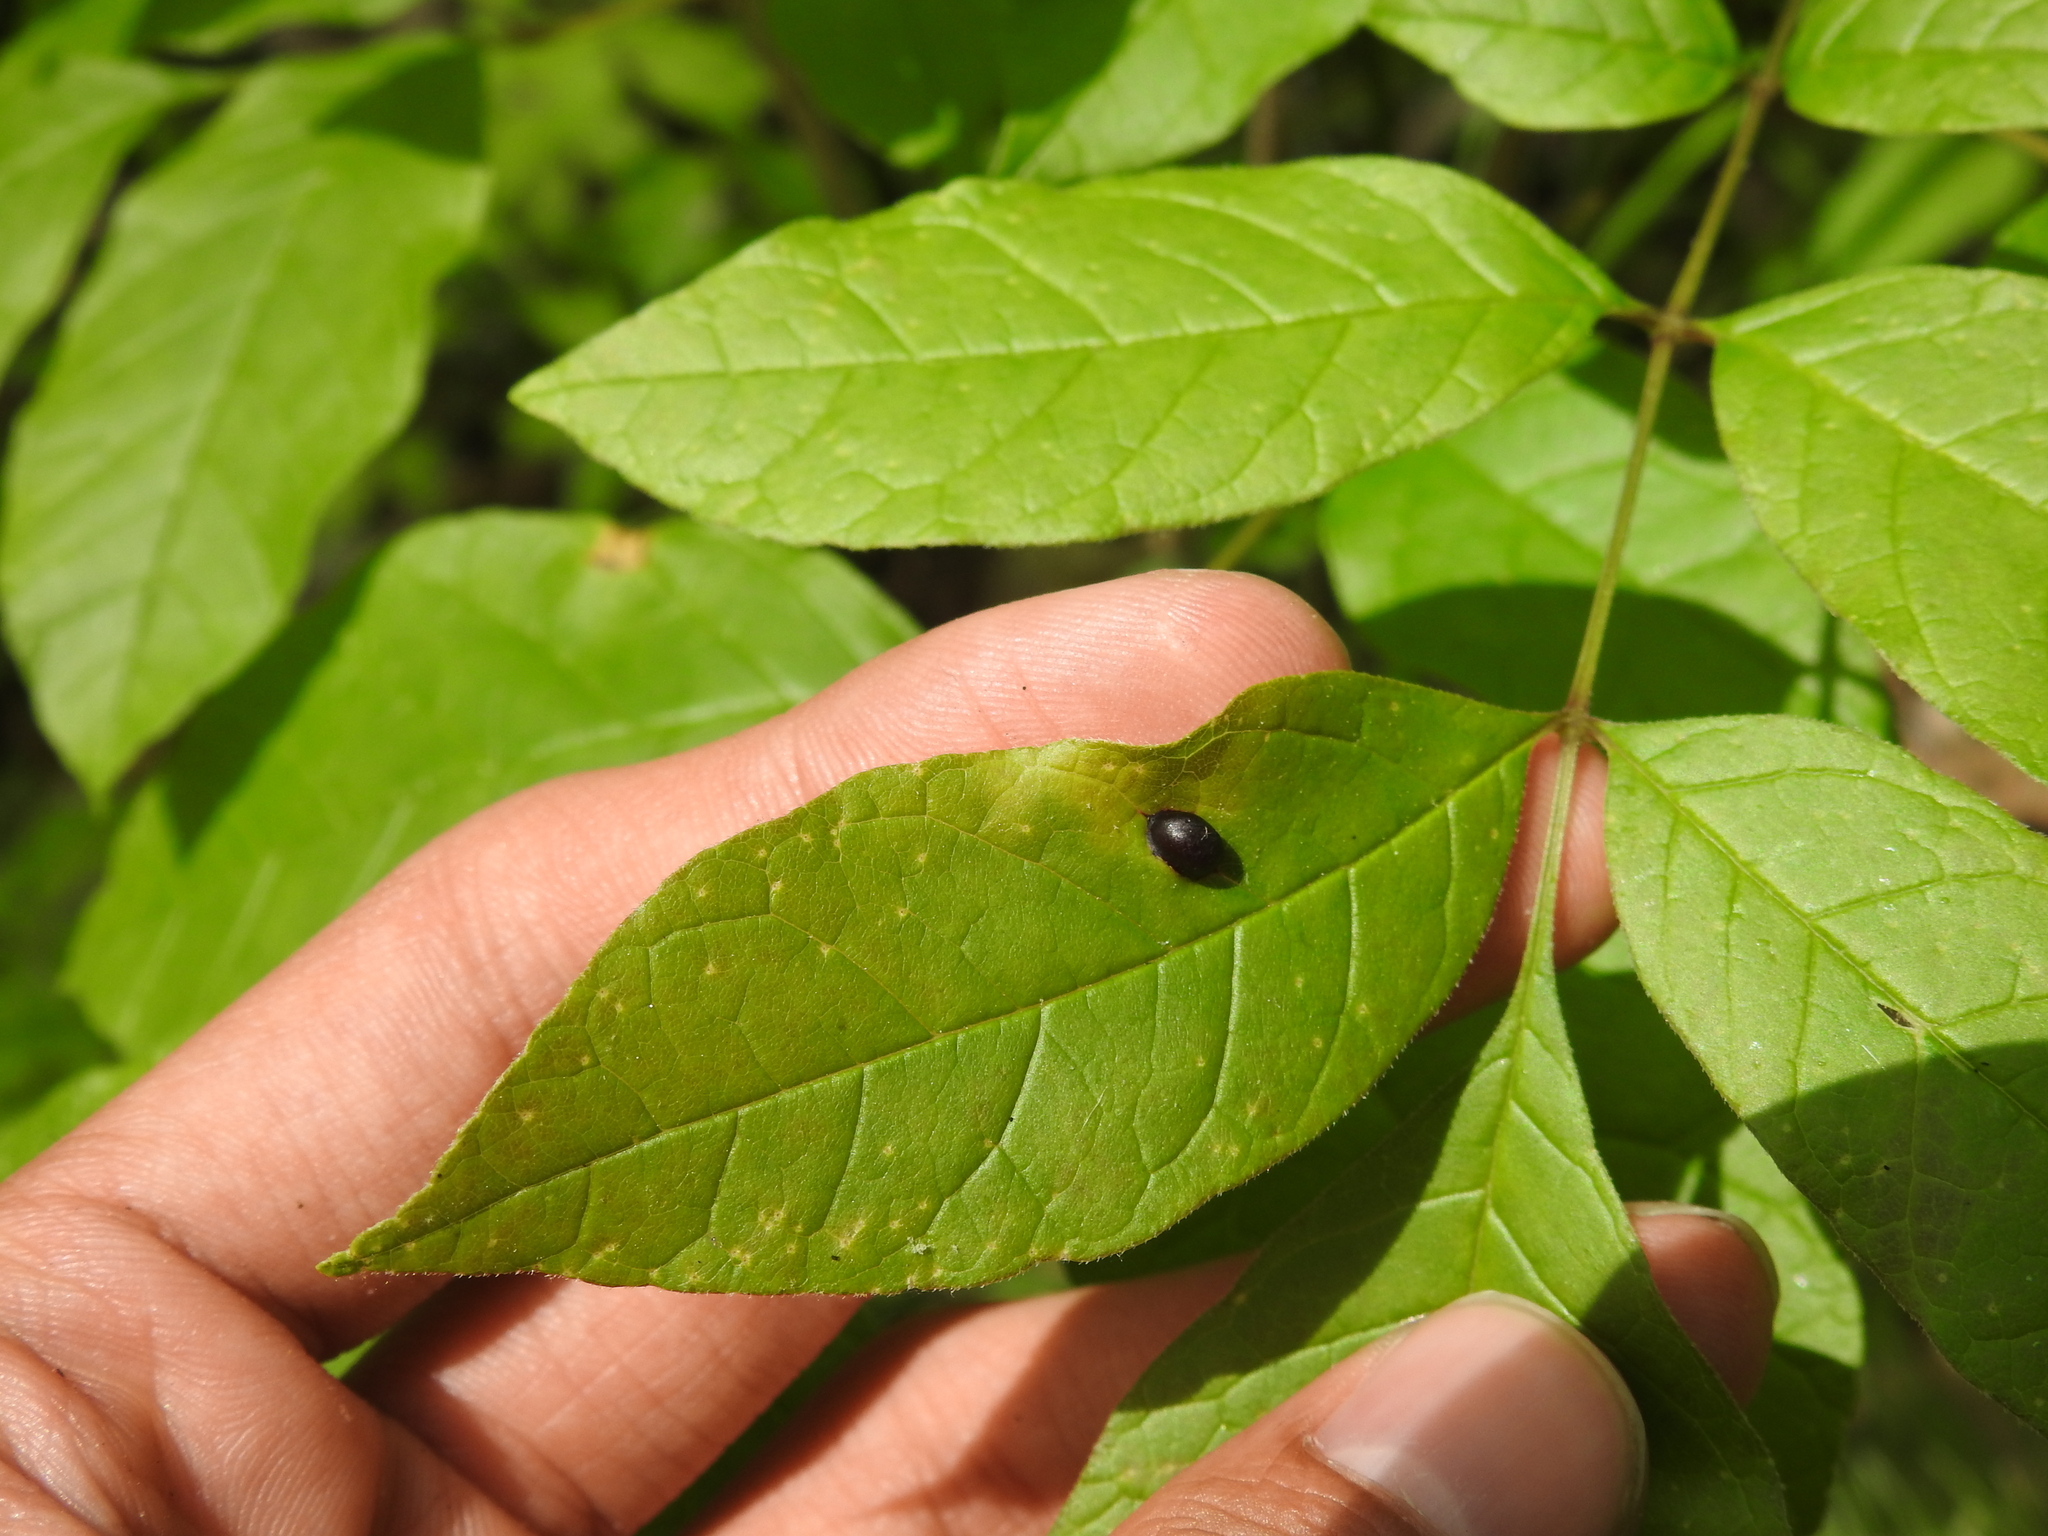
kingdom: Animalia
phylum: Arthropoda
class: Insecta
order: Diptera
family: Cecidomyiidae
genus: Dasineura
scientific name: Dasineura pellex
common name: Ash bullet gall midge
